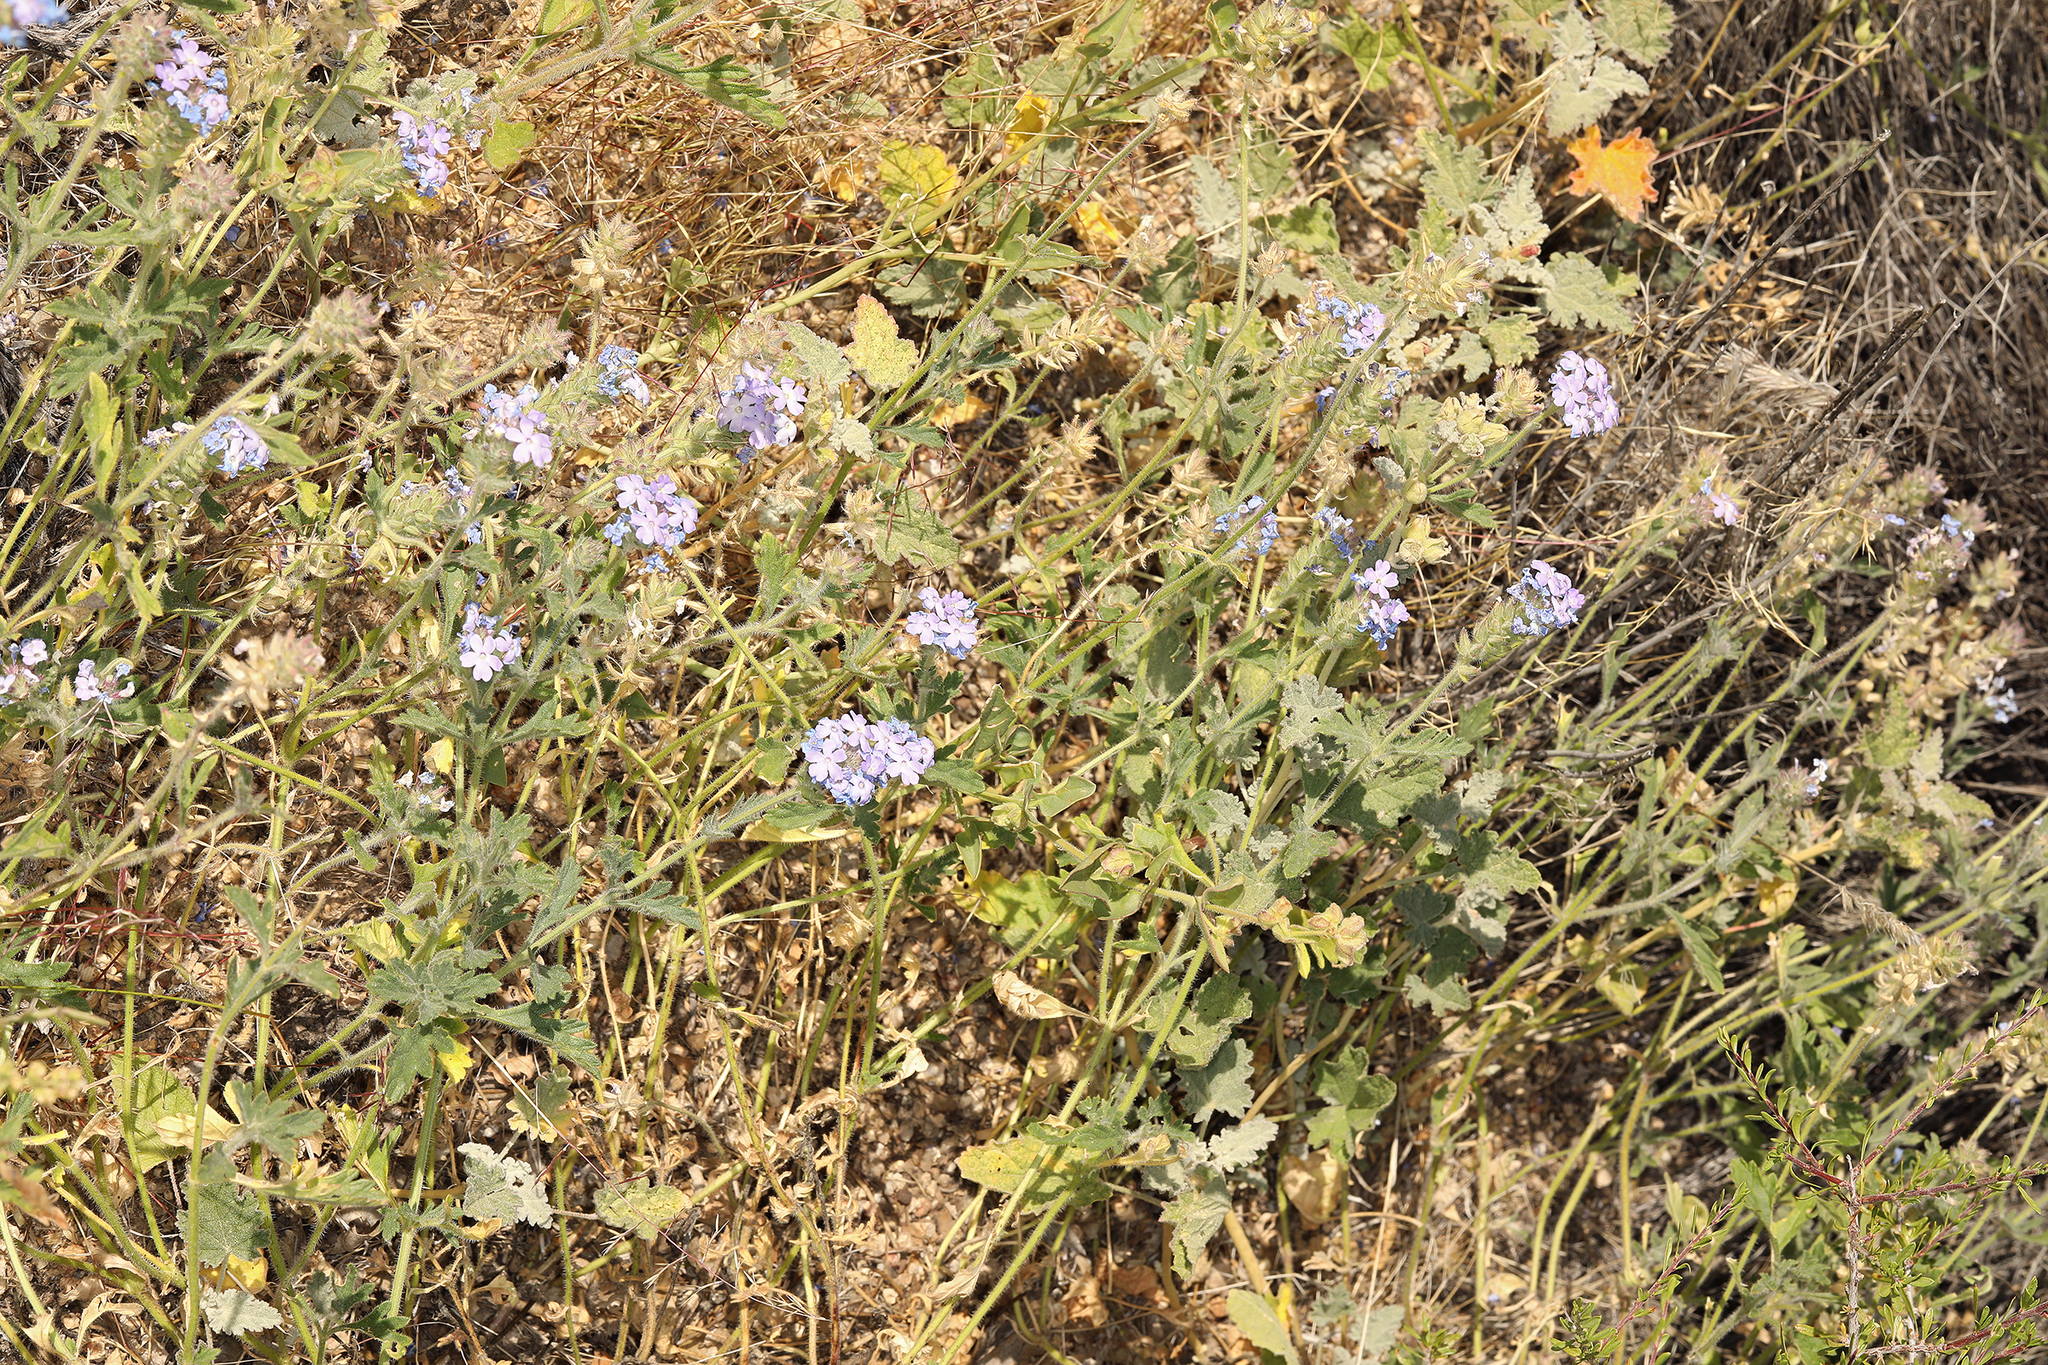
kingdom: Plantae
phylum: Tracheophyta
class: Magnoliopsida
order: Lamiales
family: Verbenaceae
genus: Verbena
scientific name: Verbena gooddingii
